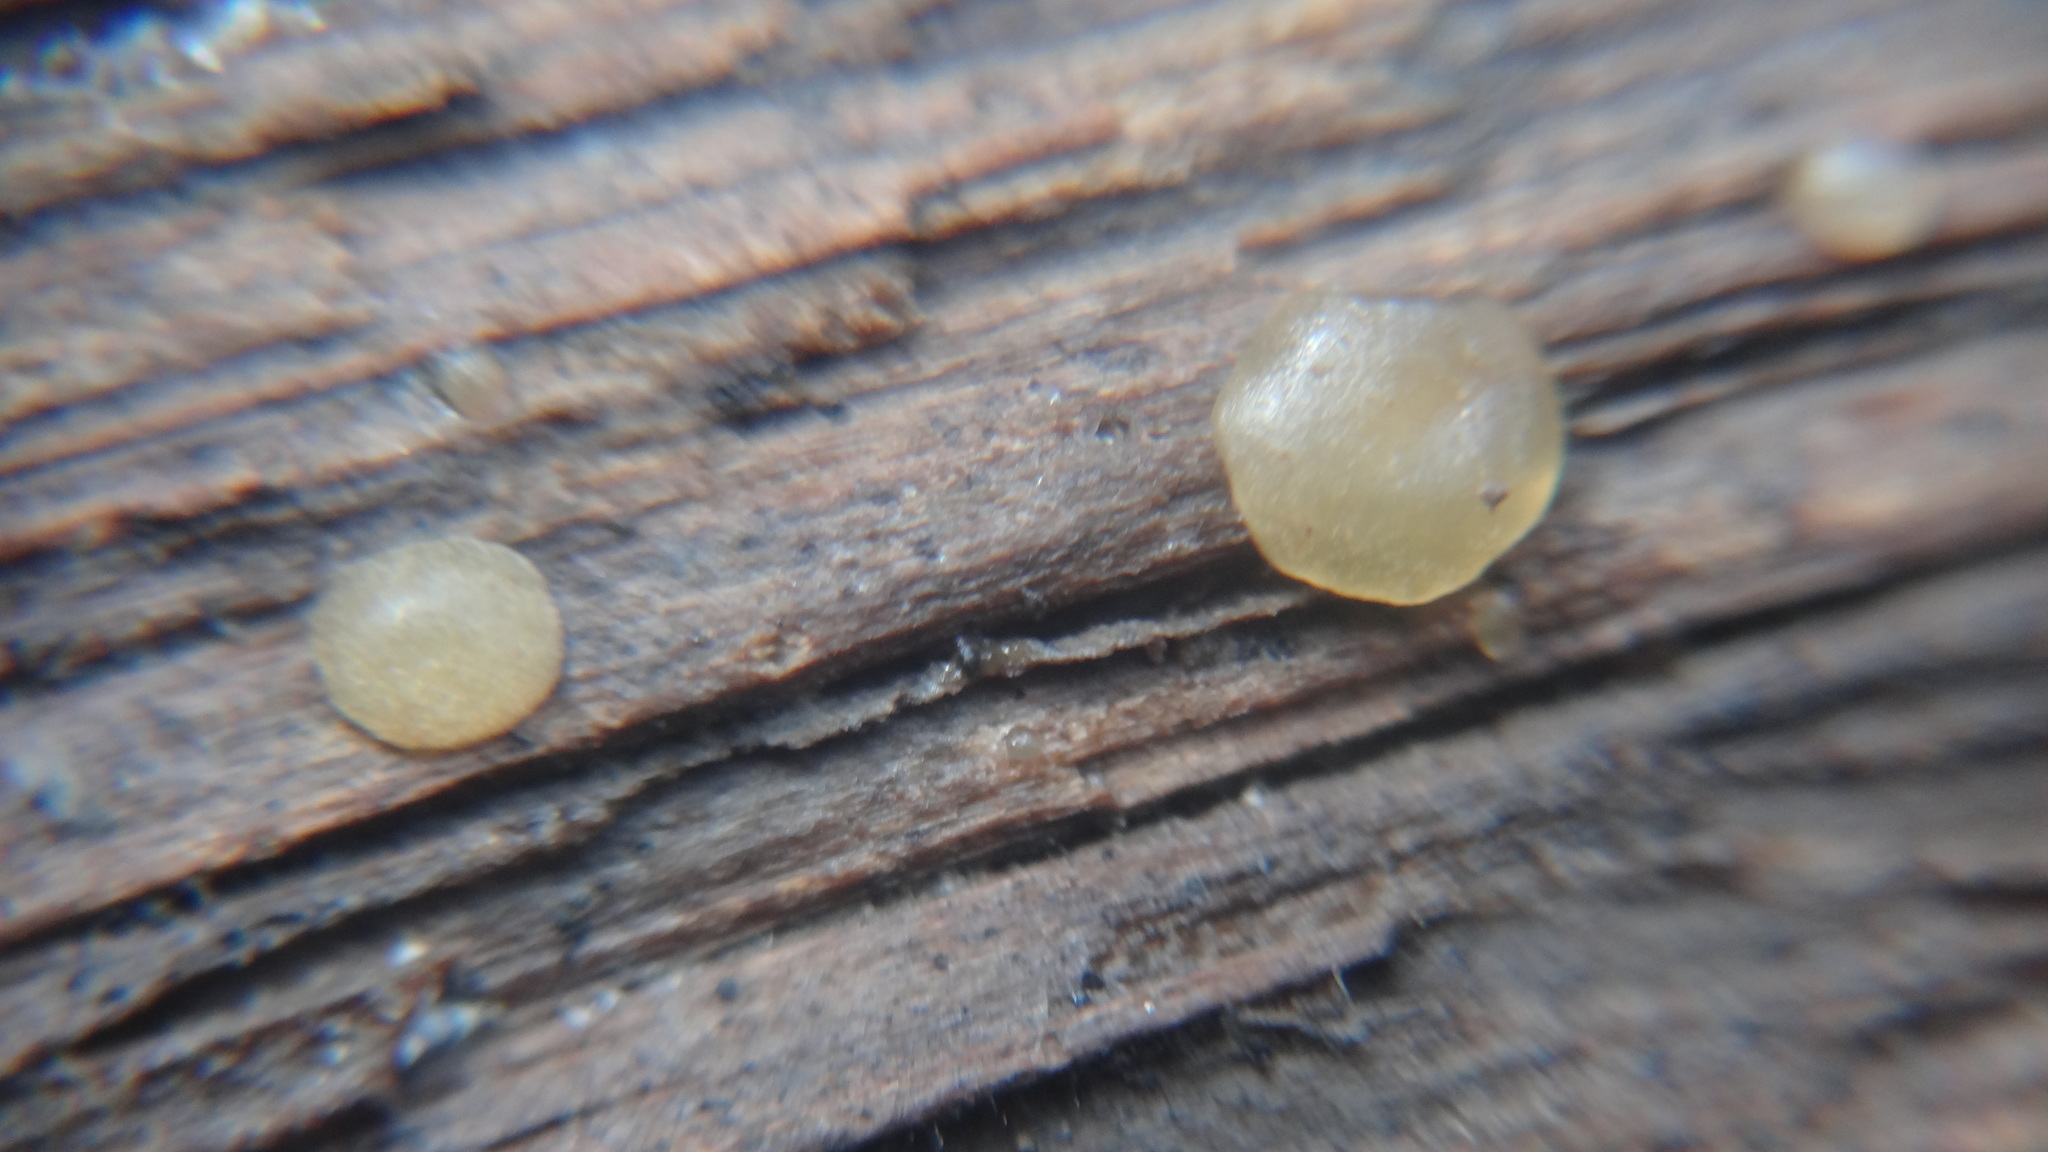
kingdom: Fungi
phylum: Basidiomycota
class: Dacrymycetes
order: Dacrymycetales
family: Dacrymycetaceae
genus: Dacrymyces
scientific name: Dacrymyces stillatus
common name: Common jelly spot
